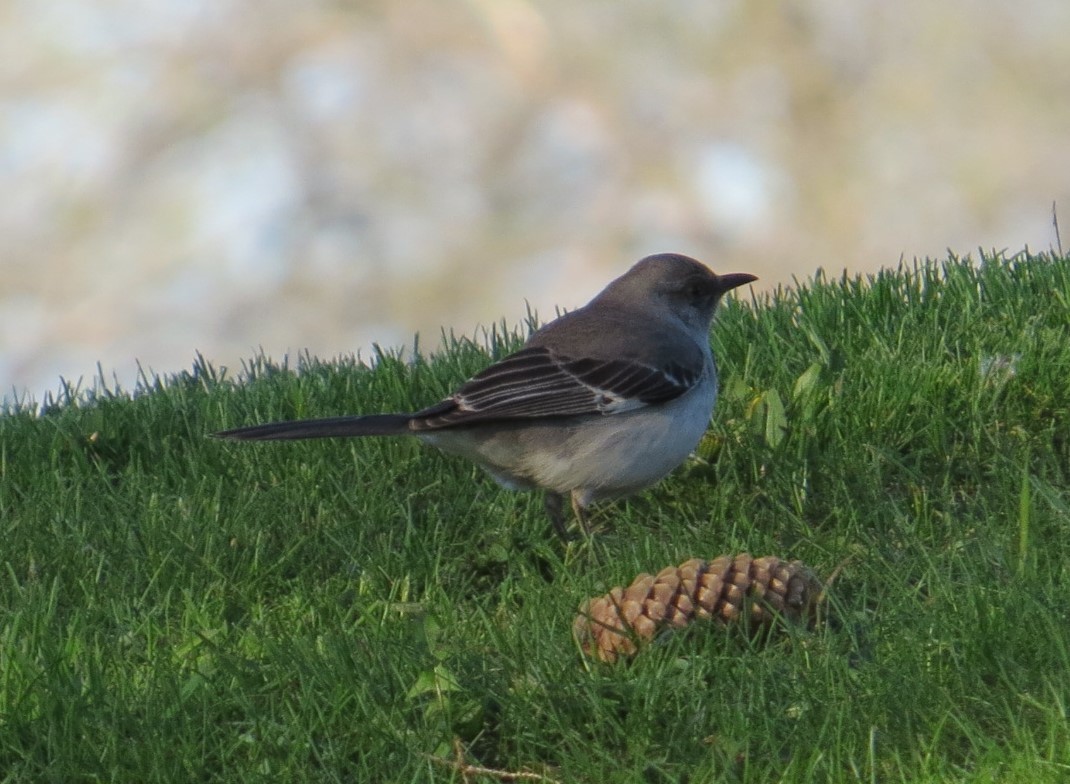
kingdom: Animalia
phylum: Chordata
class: Aves
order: Passeriformes
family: Mimidae
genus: Mimus
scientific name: Mimus polyglottos
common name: Northern mockingbird
